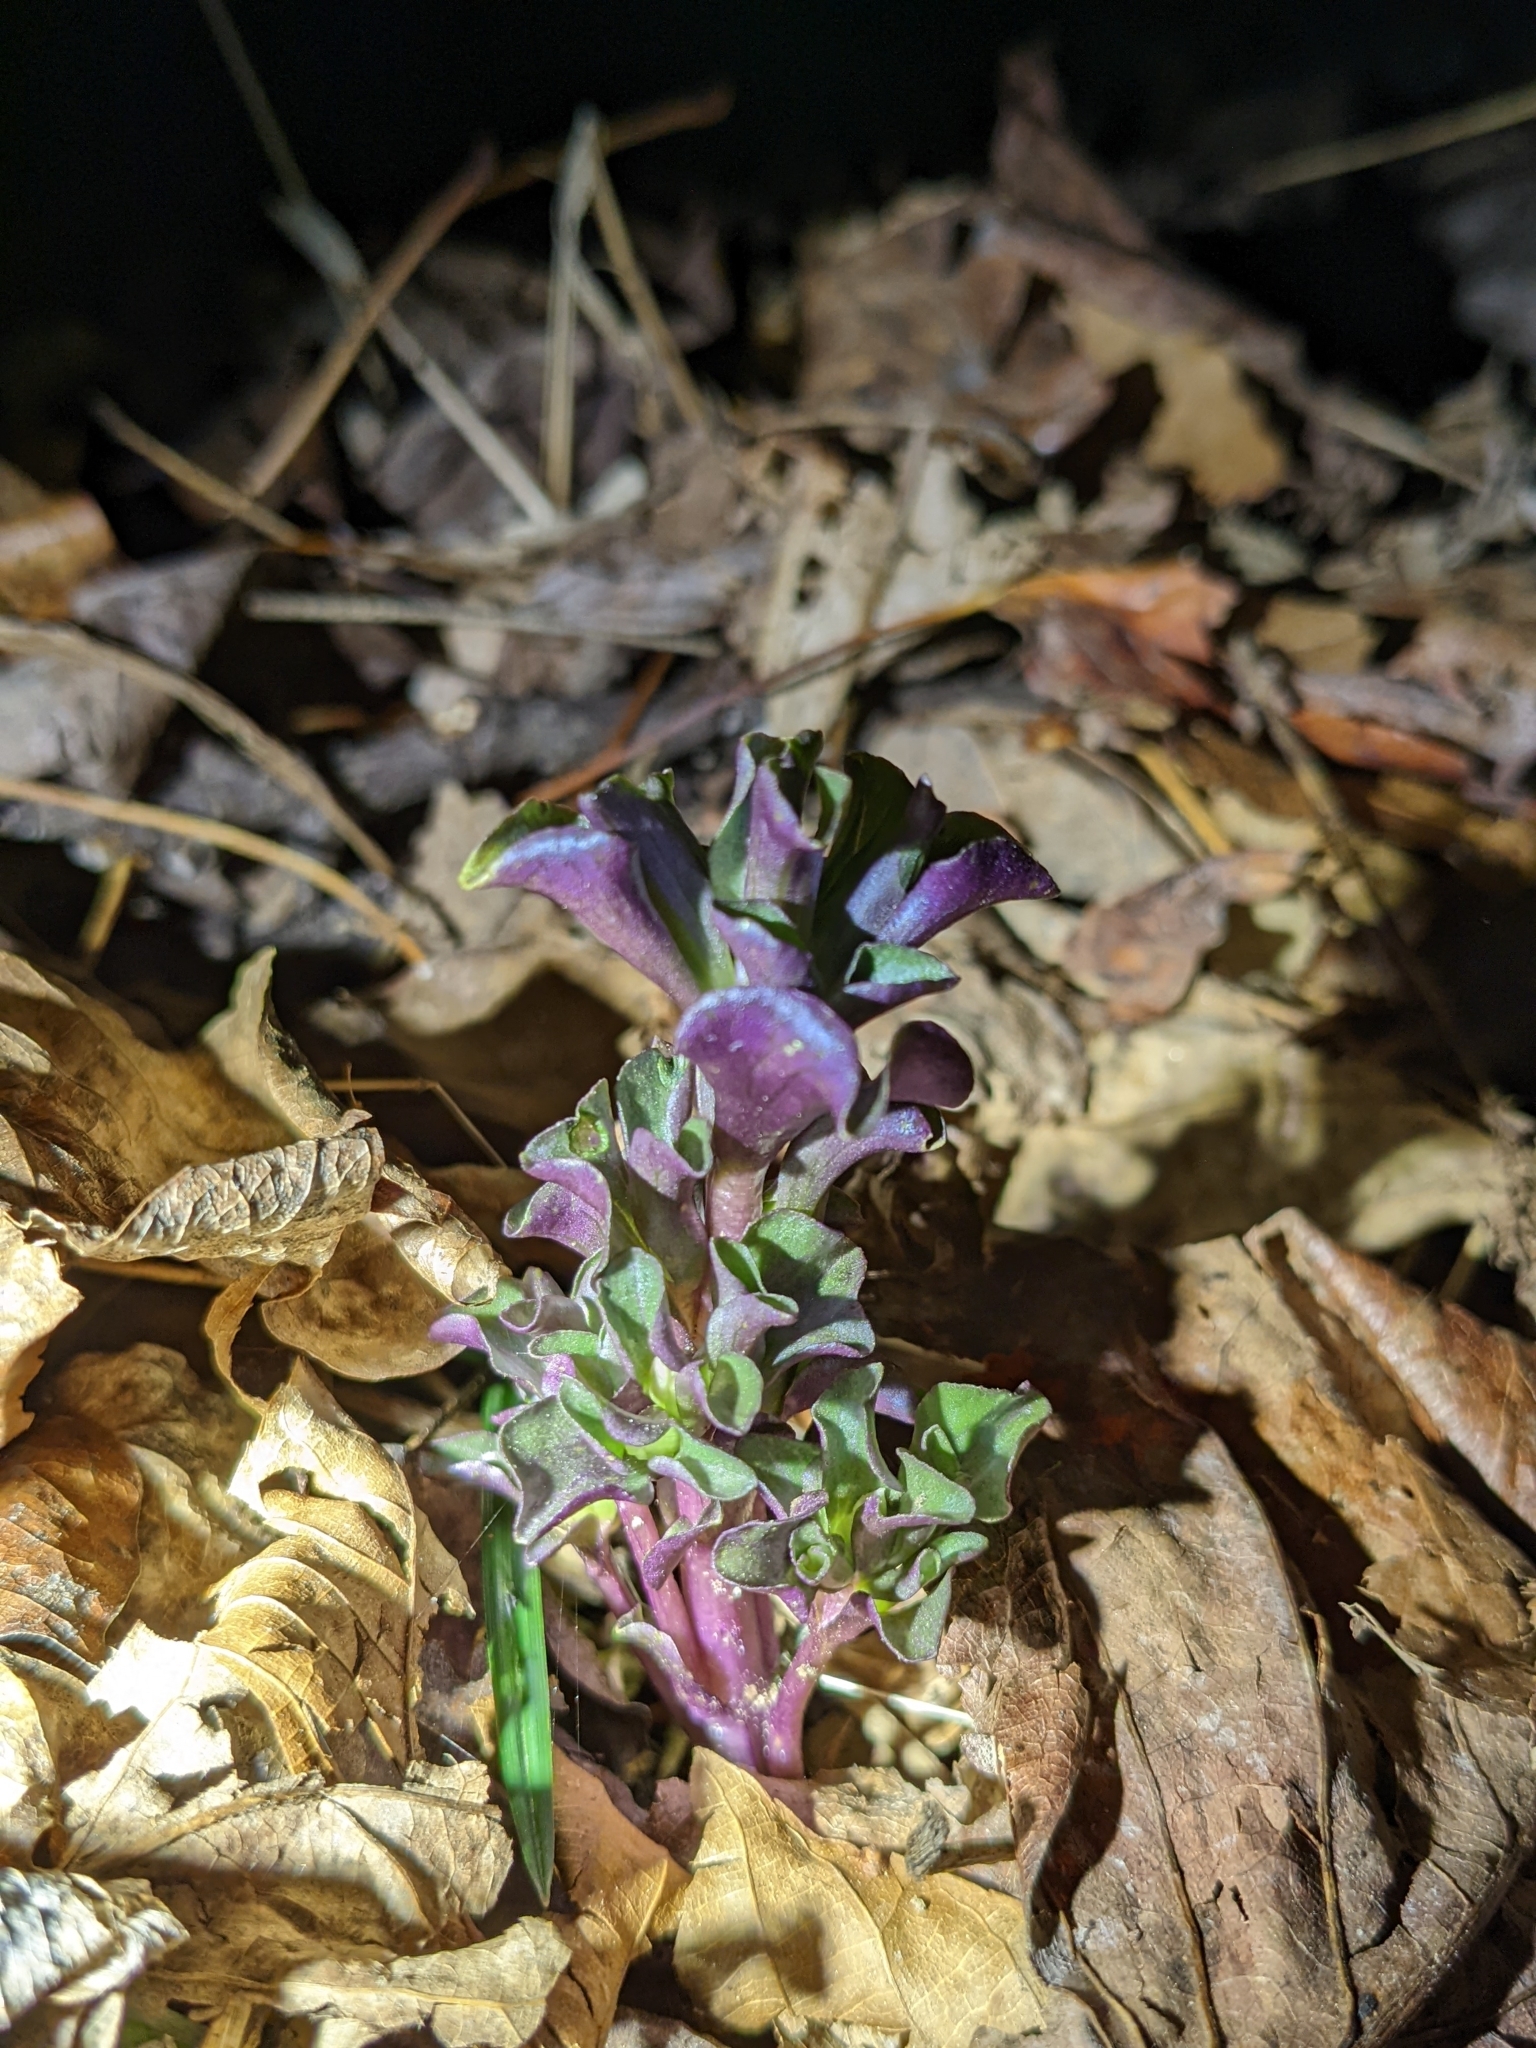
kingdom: Plantae
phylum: Tracheophyta
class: Magnoliopsida
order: Gentianales
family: Gentianaceae
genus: Obolaria
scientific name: Obolaria virginica
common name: Pennywort
